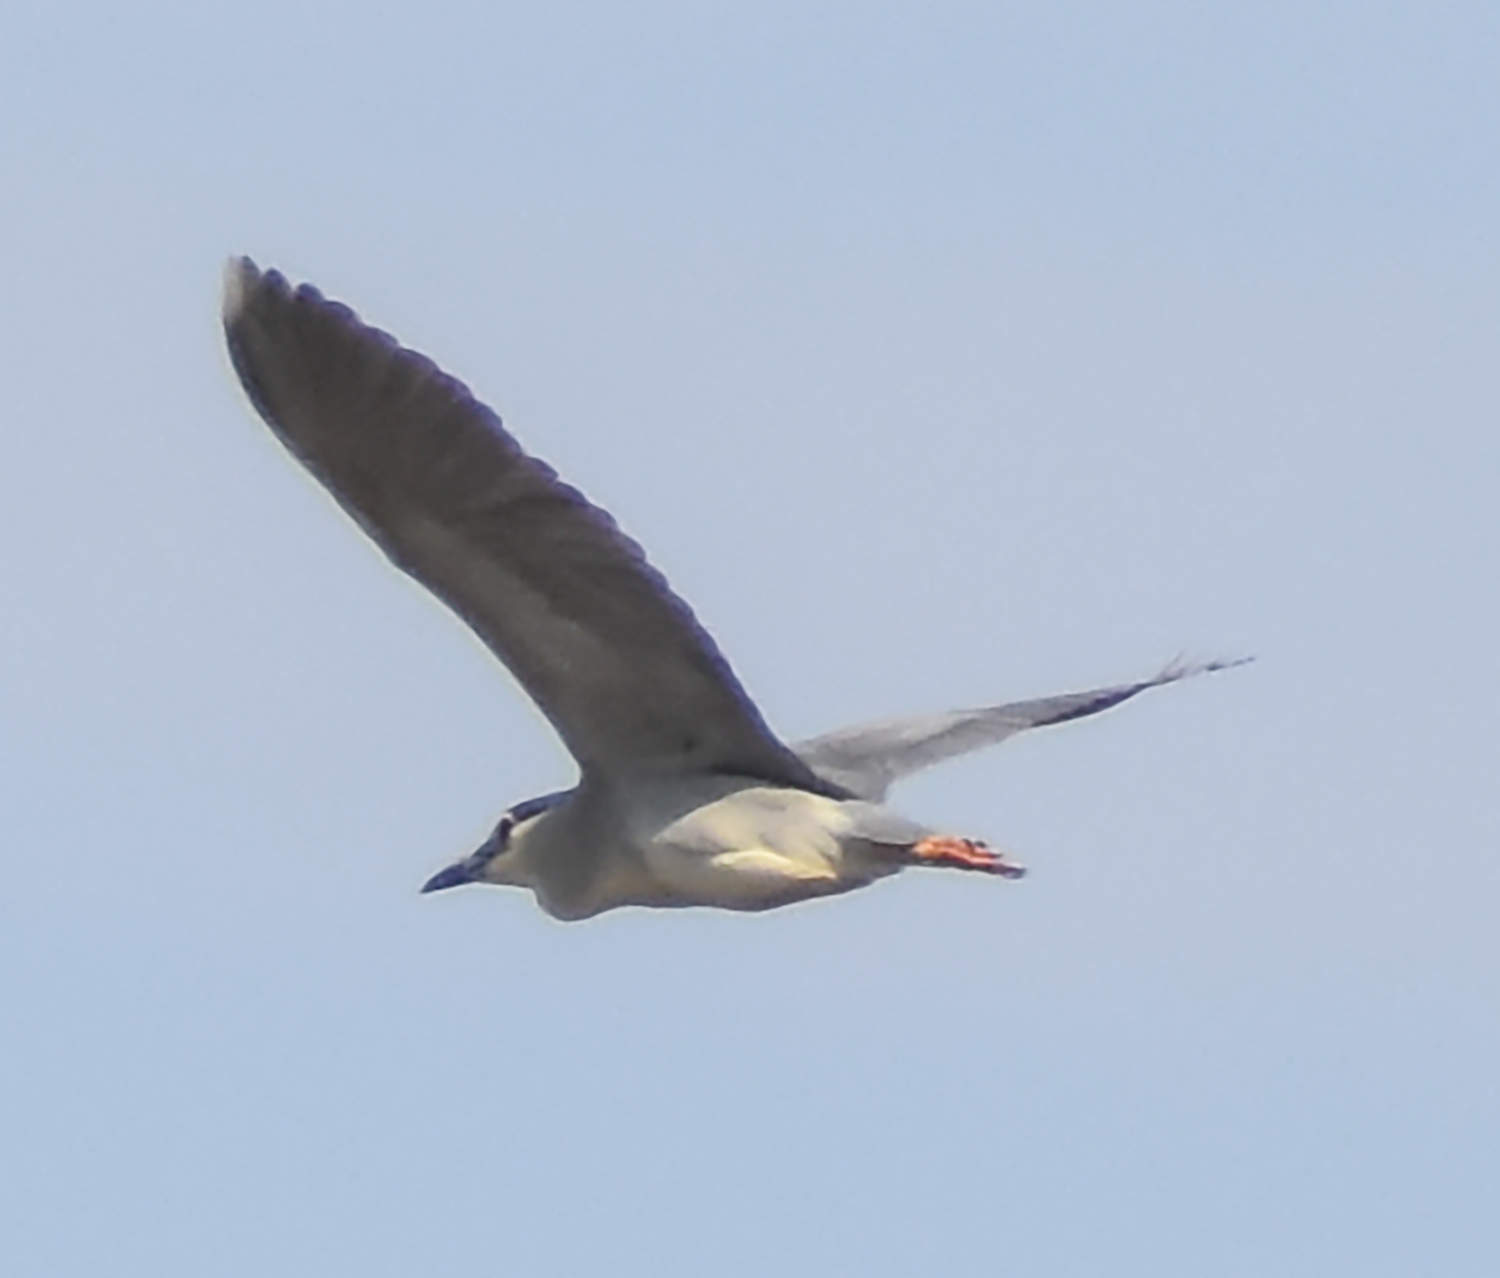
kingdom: Animalia
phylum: Chordata
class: Aves
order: Pelecaniformes
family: Ardeidae
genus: Nycticorax
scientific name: Nycticorax nycticorax
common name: Black-crowned night heron
